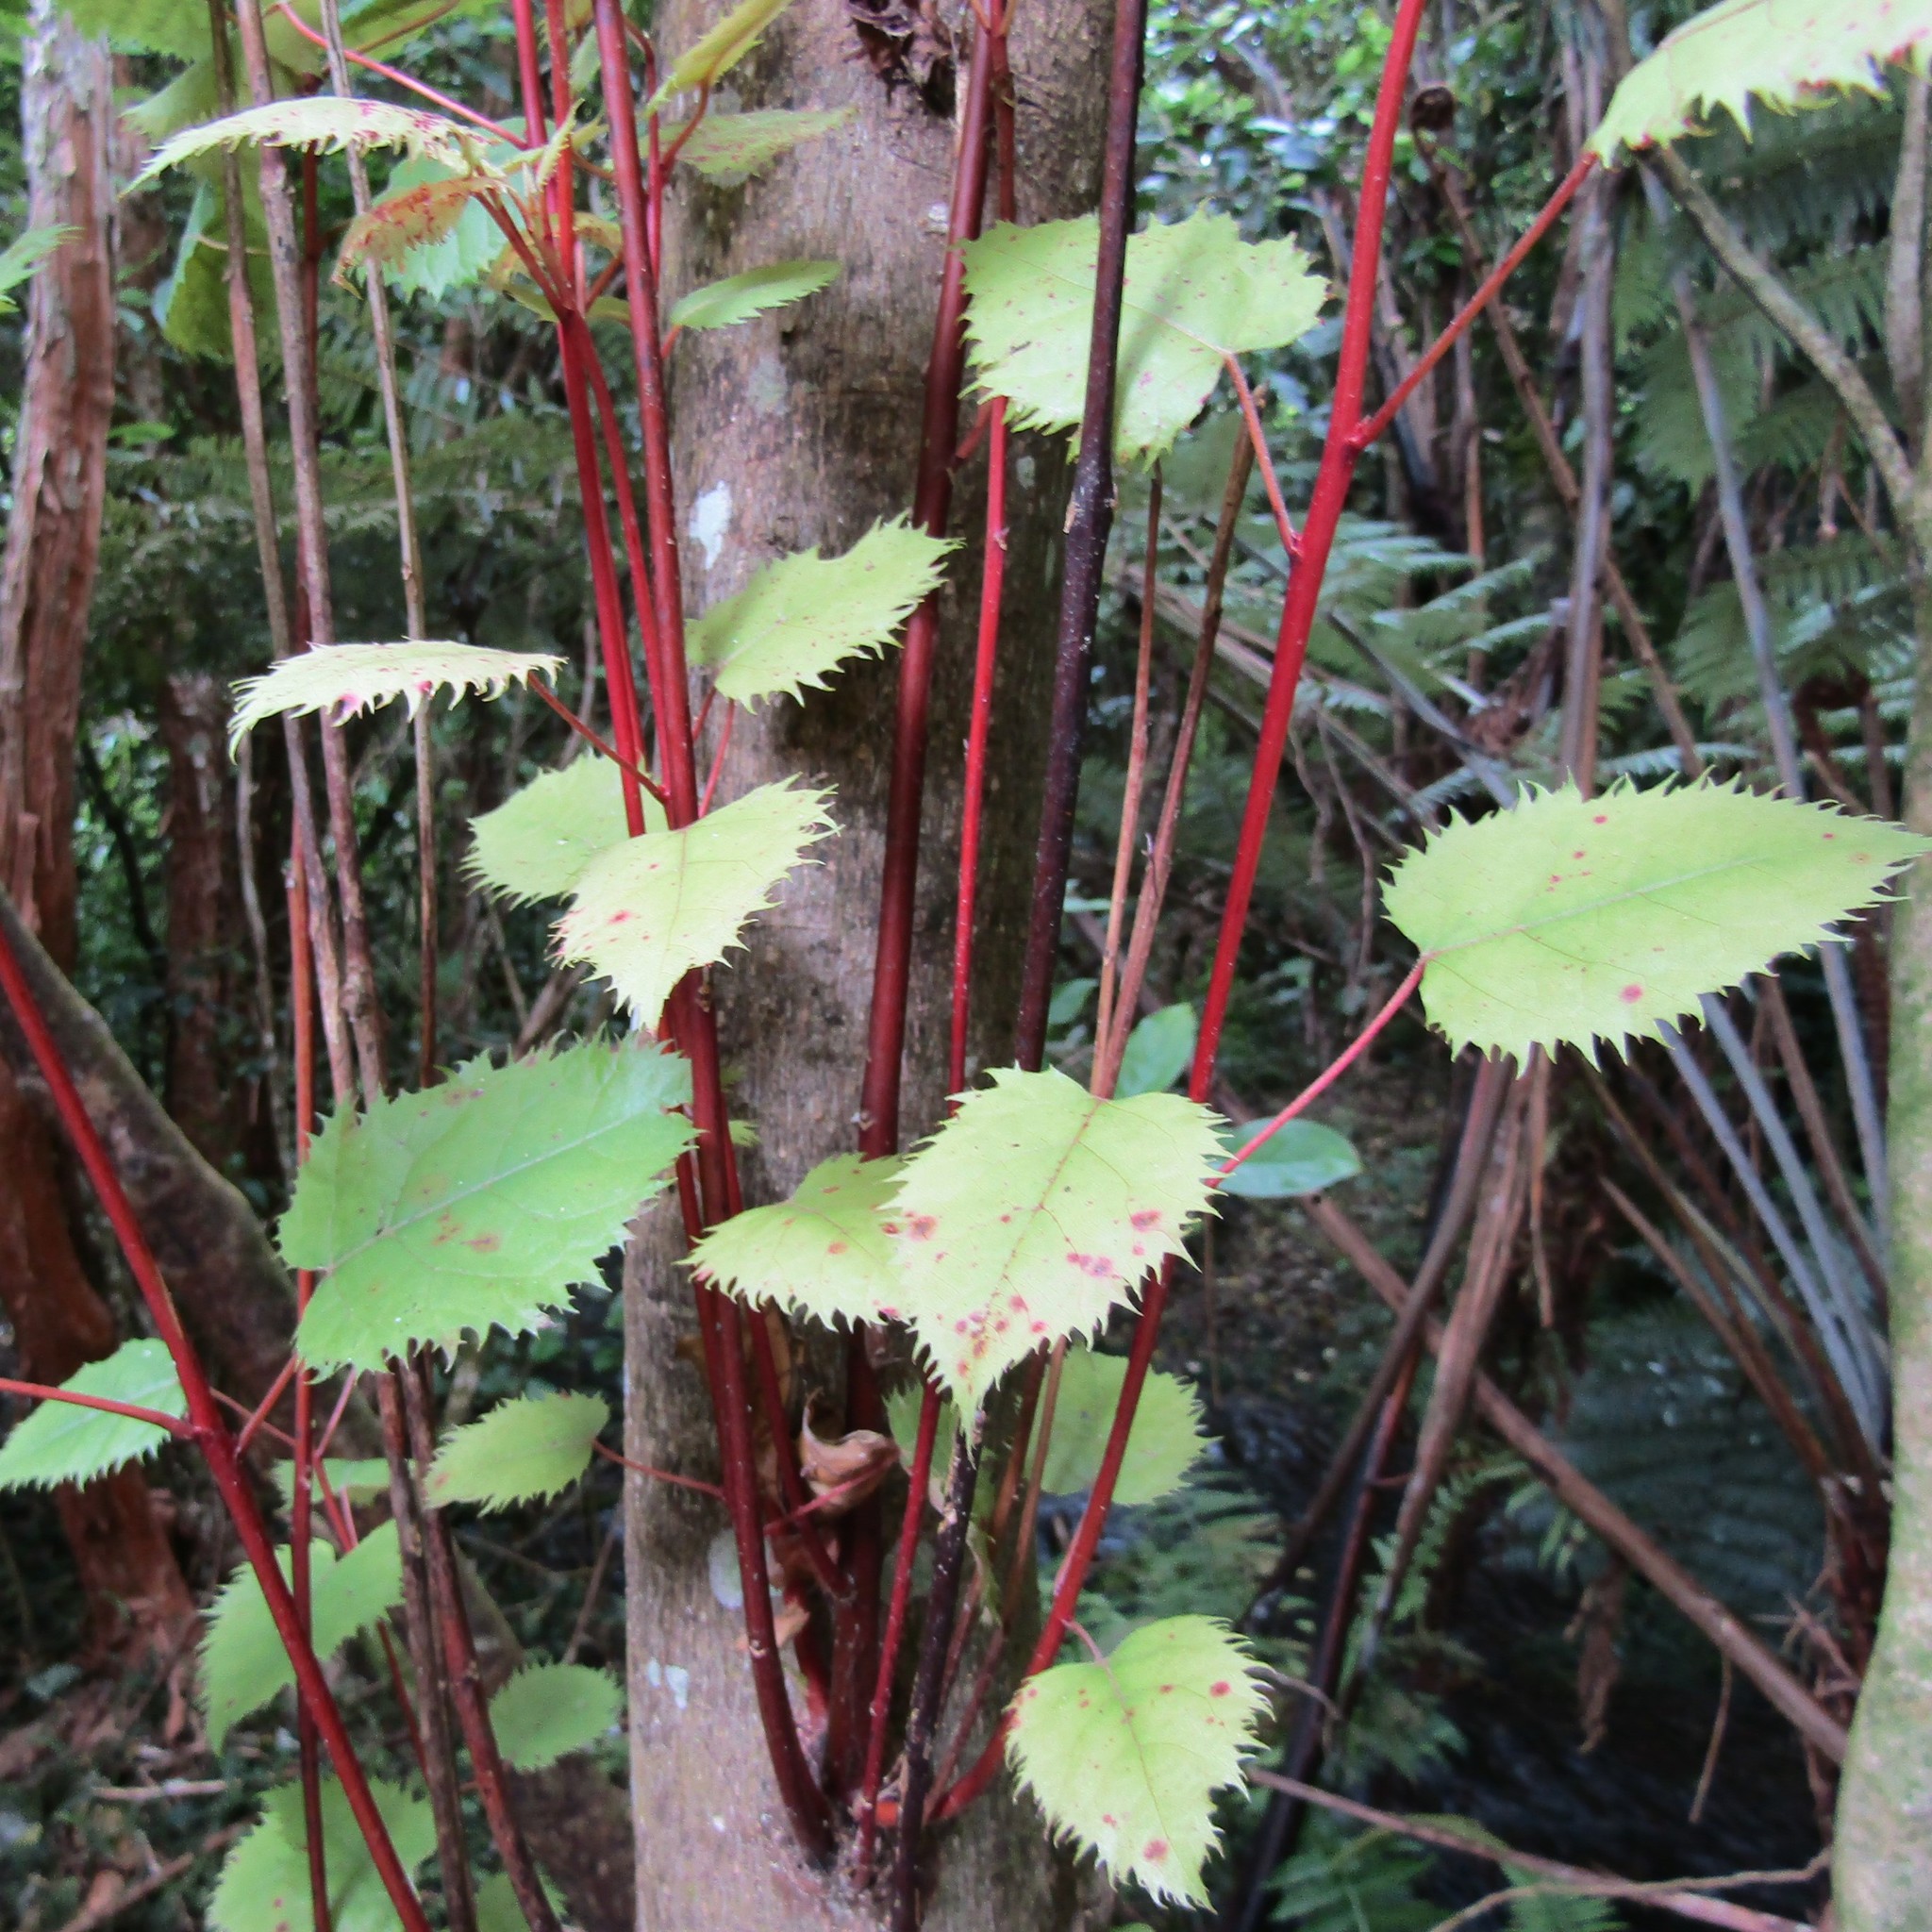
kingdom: Animalia
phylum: Arthropoda
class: Insecta
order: Lepidoptera
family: Hepialidae
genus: Aenetus
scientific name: Aenetus virescens
